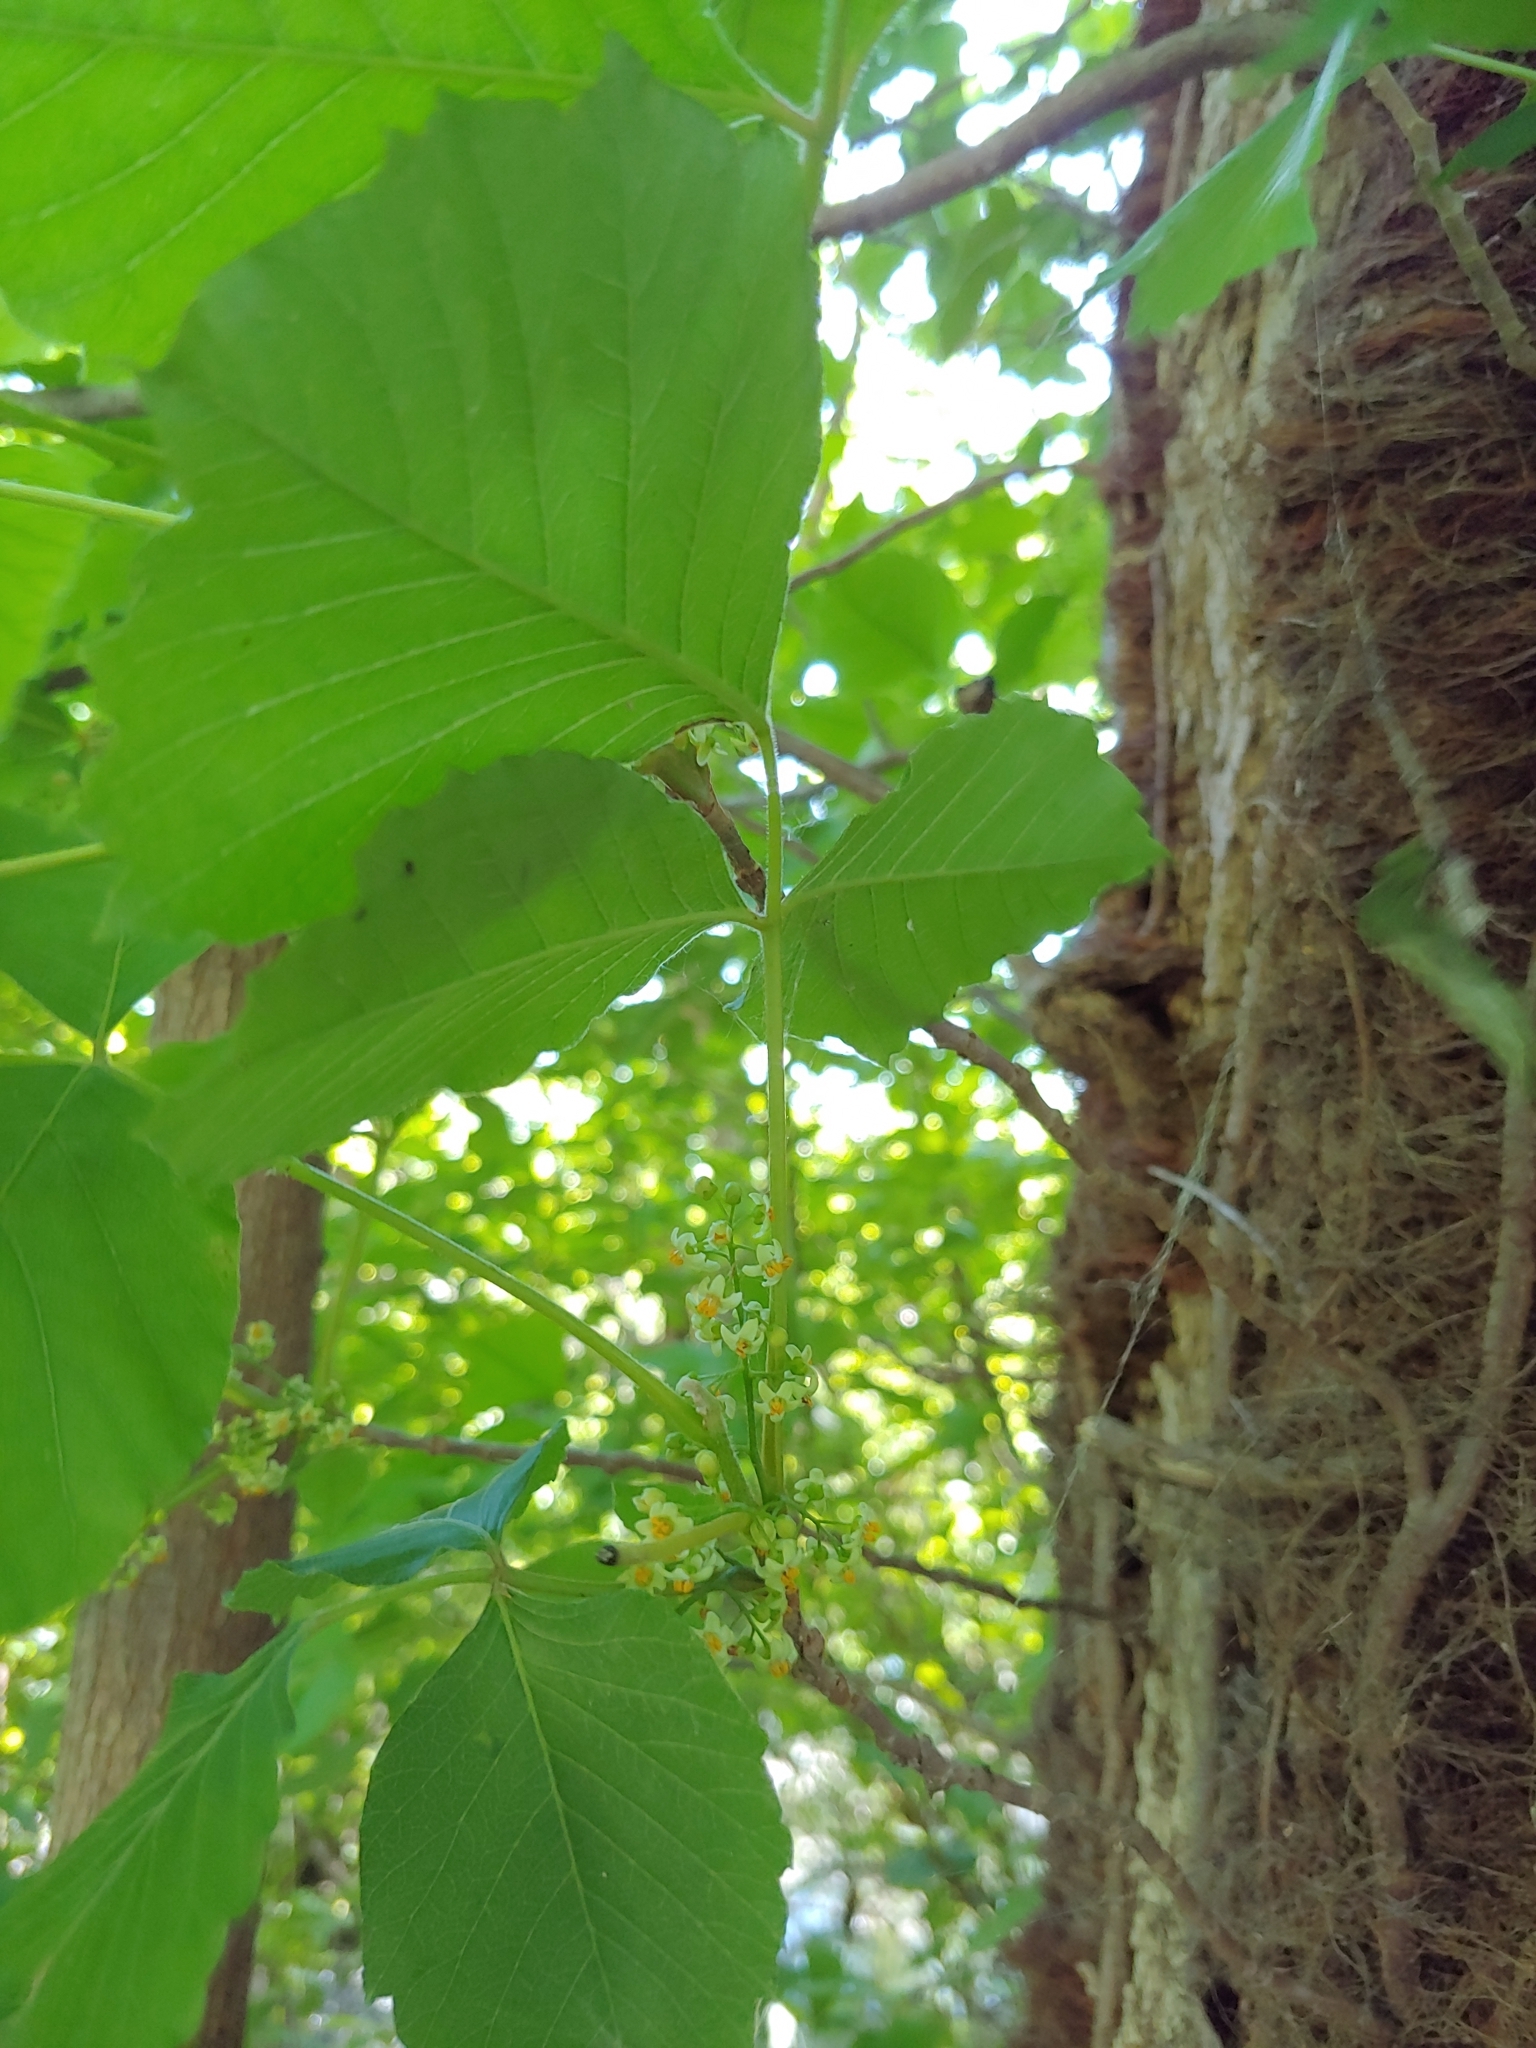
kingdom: Plantae
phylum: Tracheophyta
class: Magnoliopsida
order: Sapindales
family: Anacardiaceae
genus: Toxicodendron
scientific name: Toxicodendron radicans
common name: Poison ivy
